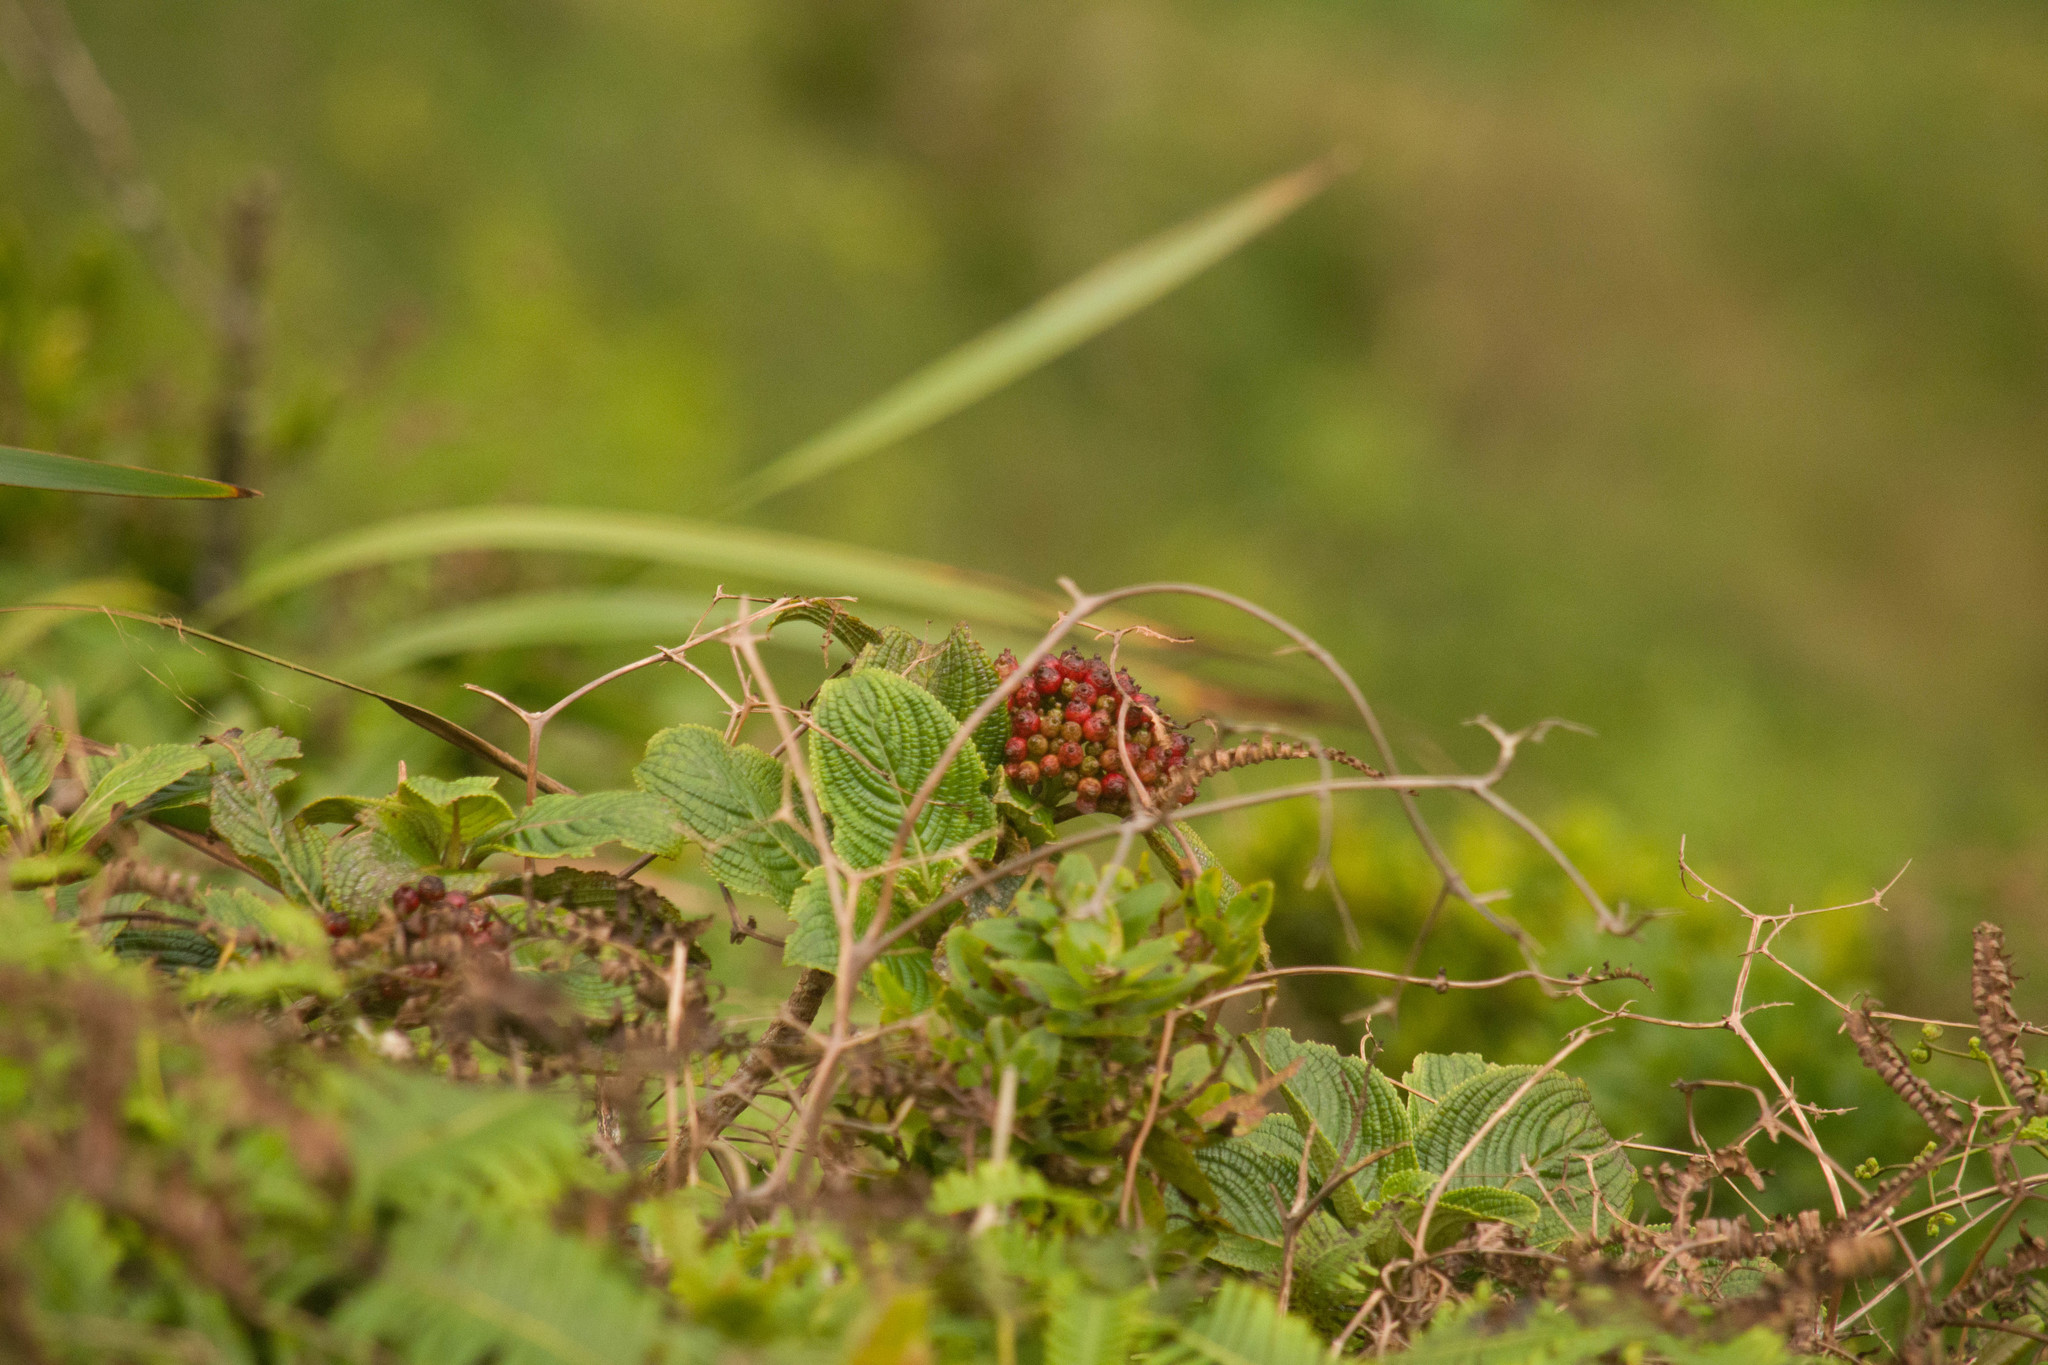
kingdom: Plantae
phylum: Tracheophyta
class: Magnoliopsida
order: Cornales
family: Hydrangeaceae
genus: Hydrangea
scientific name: Hydrangea arguta
